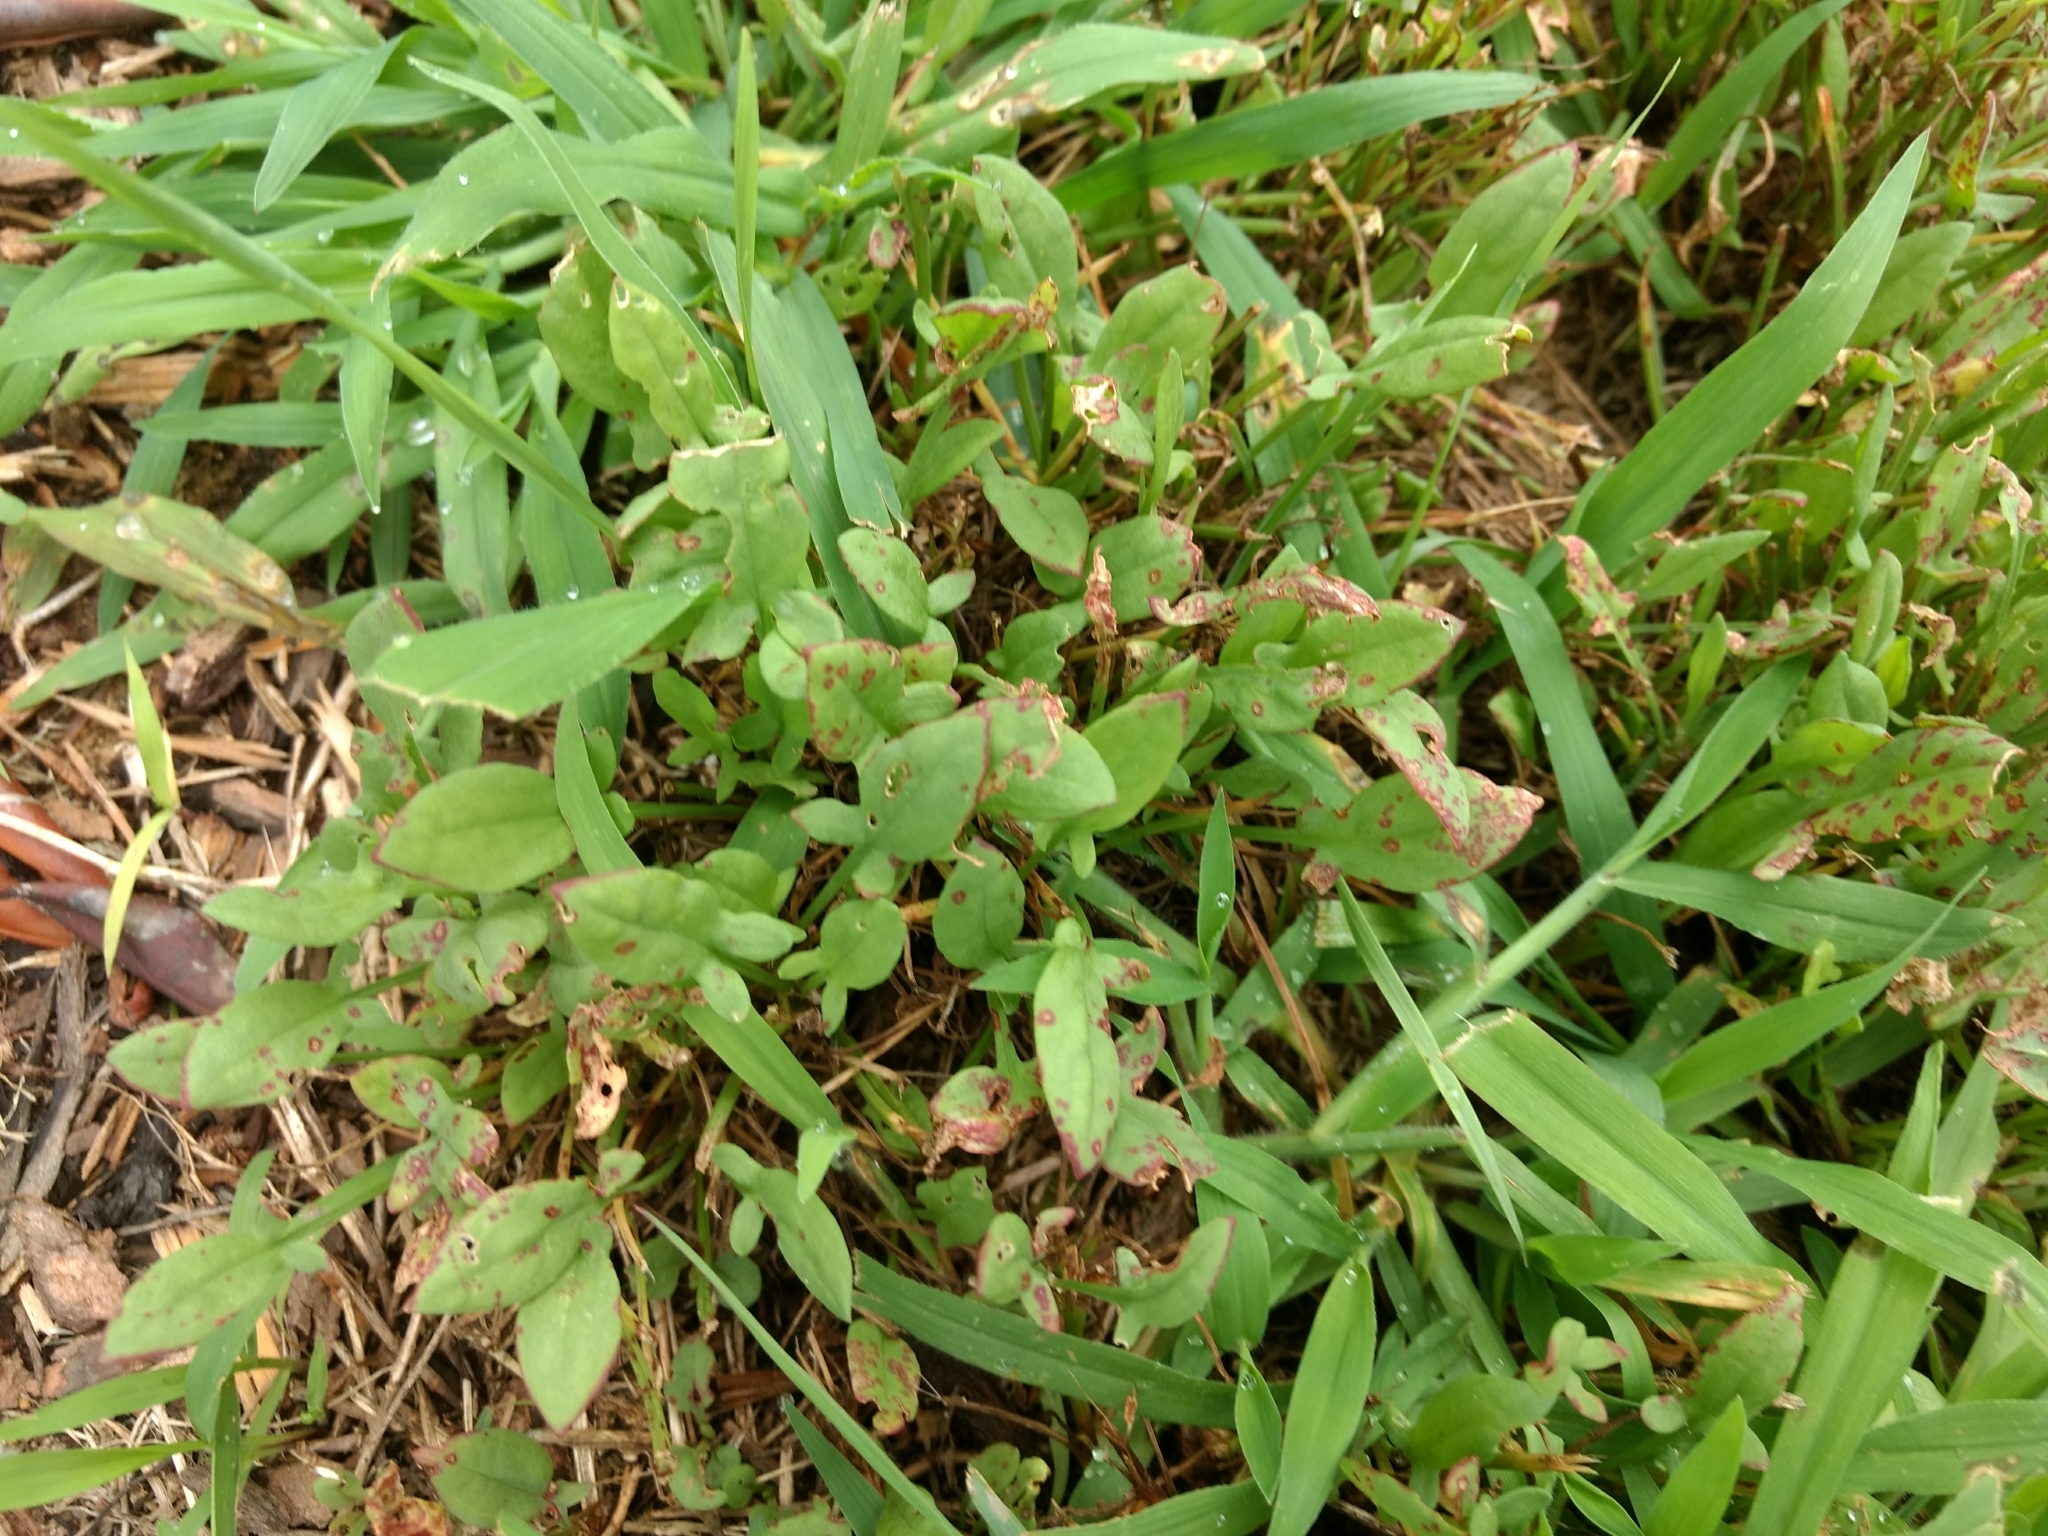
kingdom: Plantae
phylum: Tracheophyta
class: Magnoliopsida
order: Caryophyllales
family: Polygonaceae
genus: Rumex
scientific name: Rumex acetosella
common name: Common sheep sorrel
